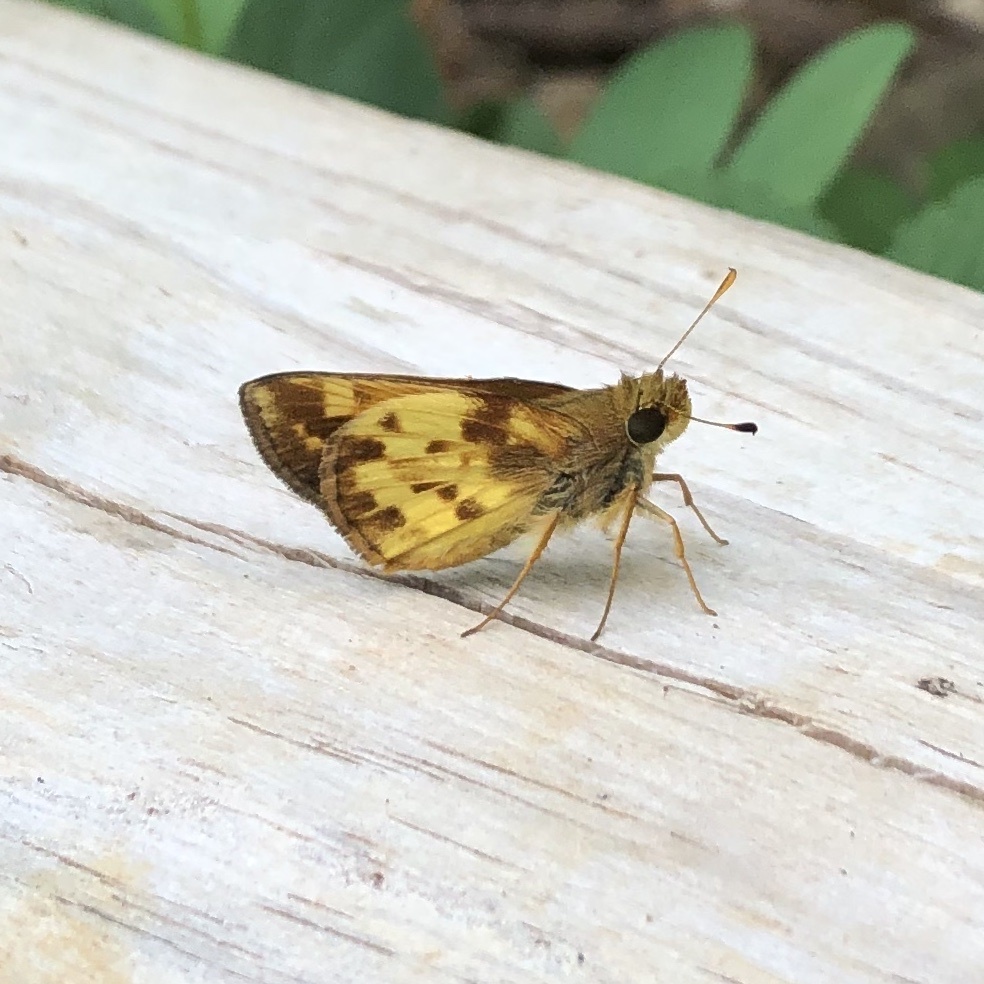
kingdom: Animalia
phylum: Arthropoda
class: Insecta
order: Lepidoptera
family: Hesperiidae
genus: Lon
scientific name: Lon zabulon
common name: Zabulon skipper
